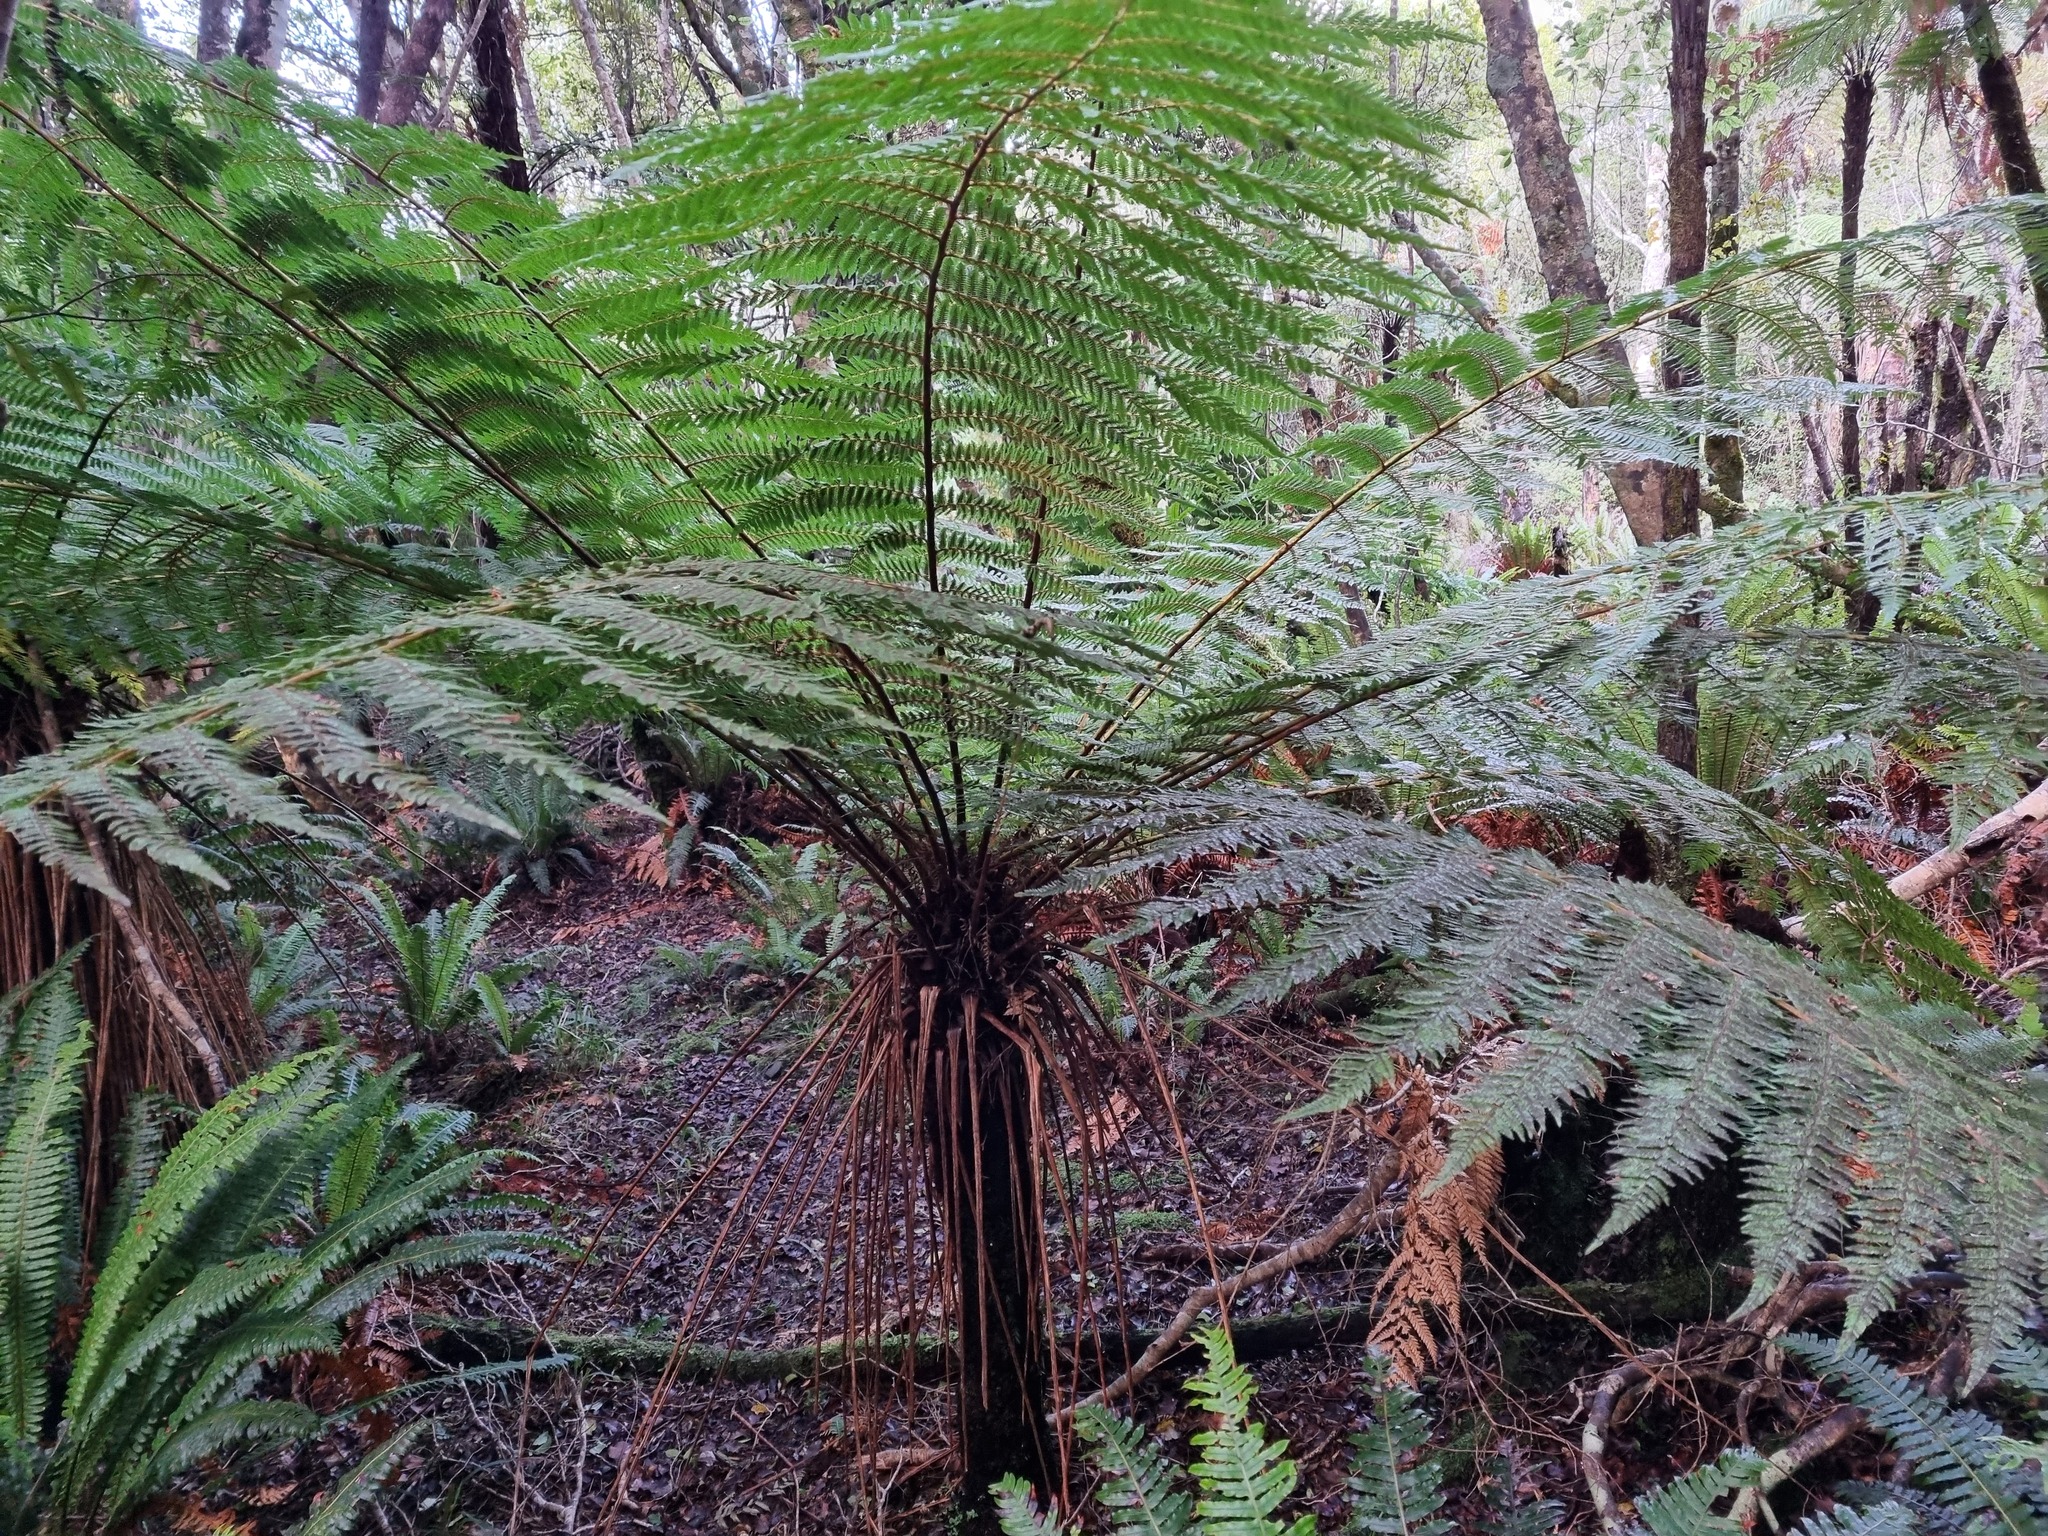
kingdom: Plantae
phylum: Tracheophyta
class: Polypodiopsida
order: Cyatheales
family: Cyatheaceae
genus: Alsophila
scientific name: Alsophila smithii
